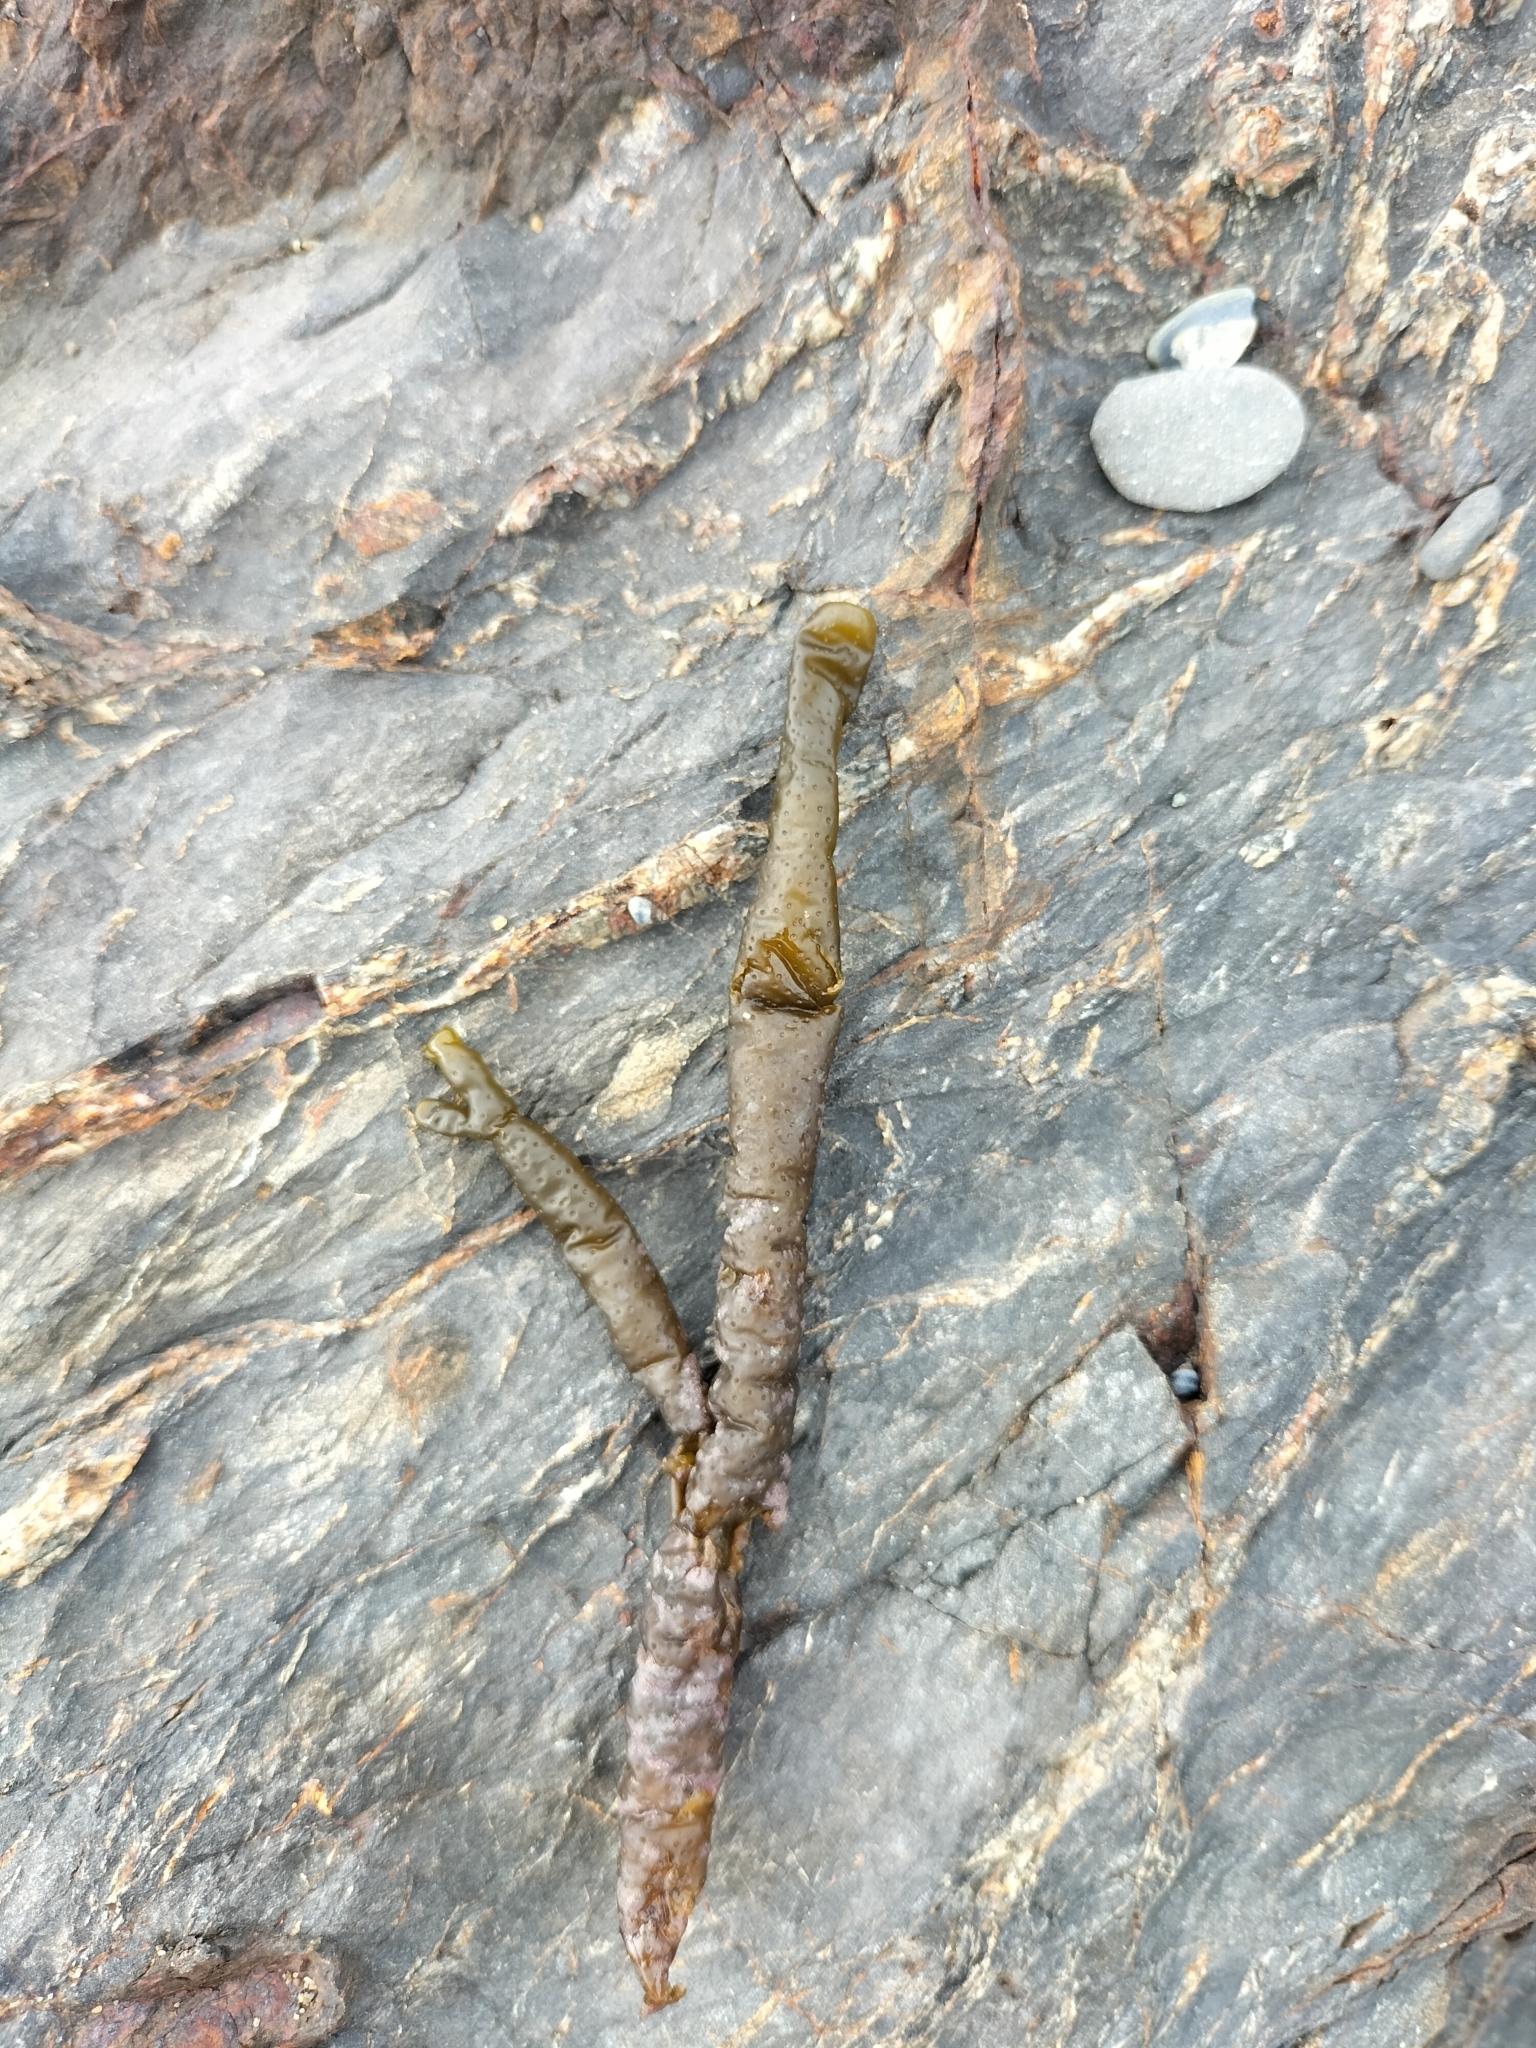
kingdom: Chromista
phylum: Ochrophyta
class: Phaeophyceae
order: Scytothamnales
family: Splachnidiaceae
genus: Splachnidium
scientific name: Splachnidium rugosum
